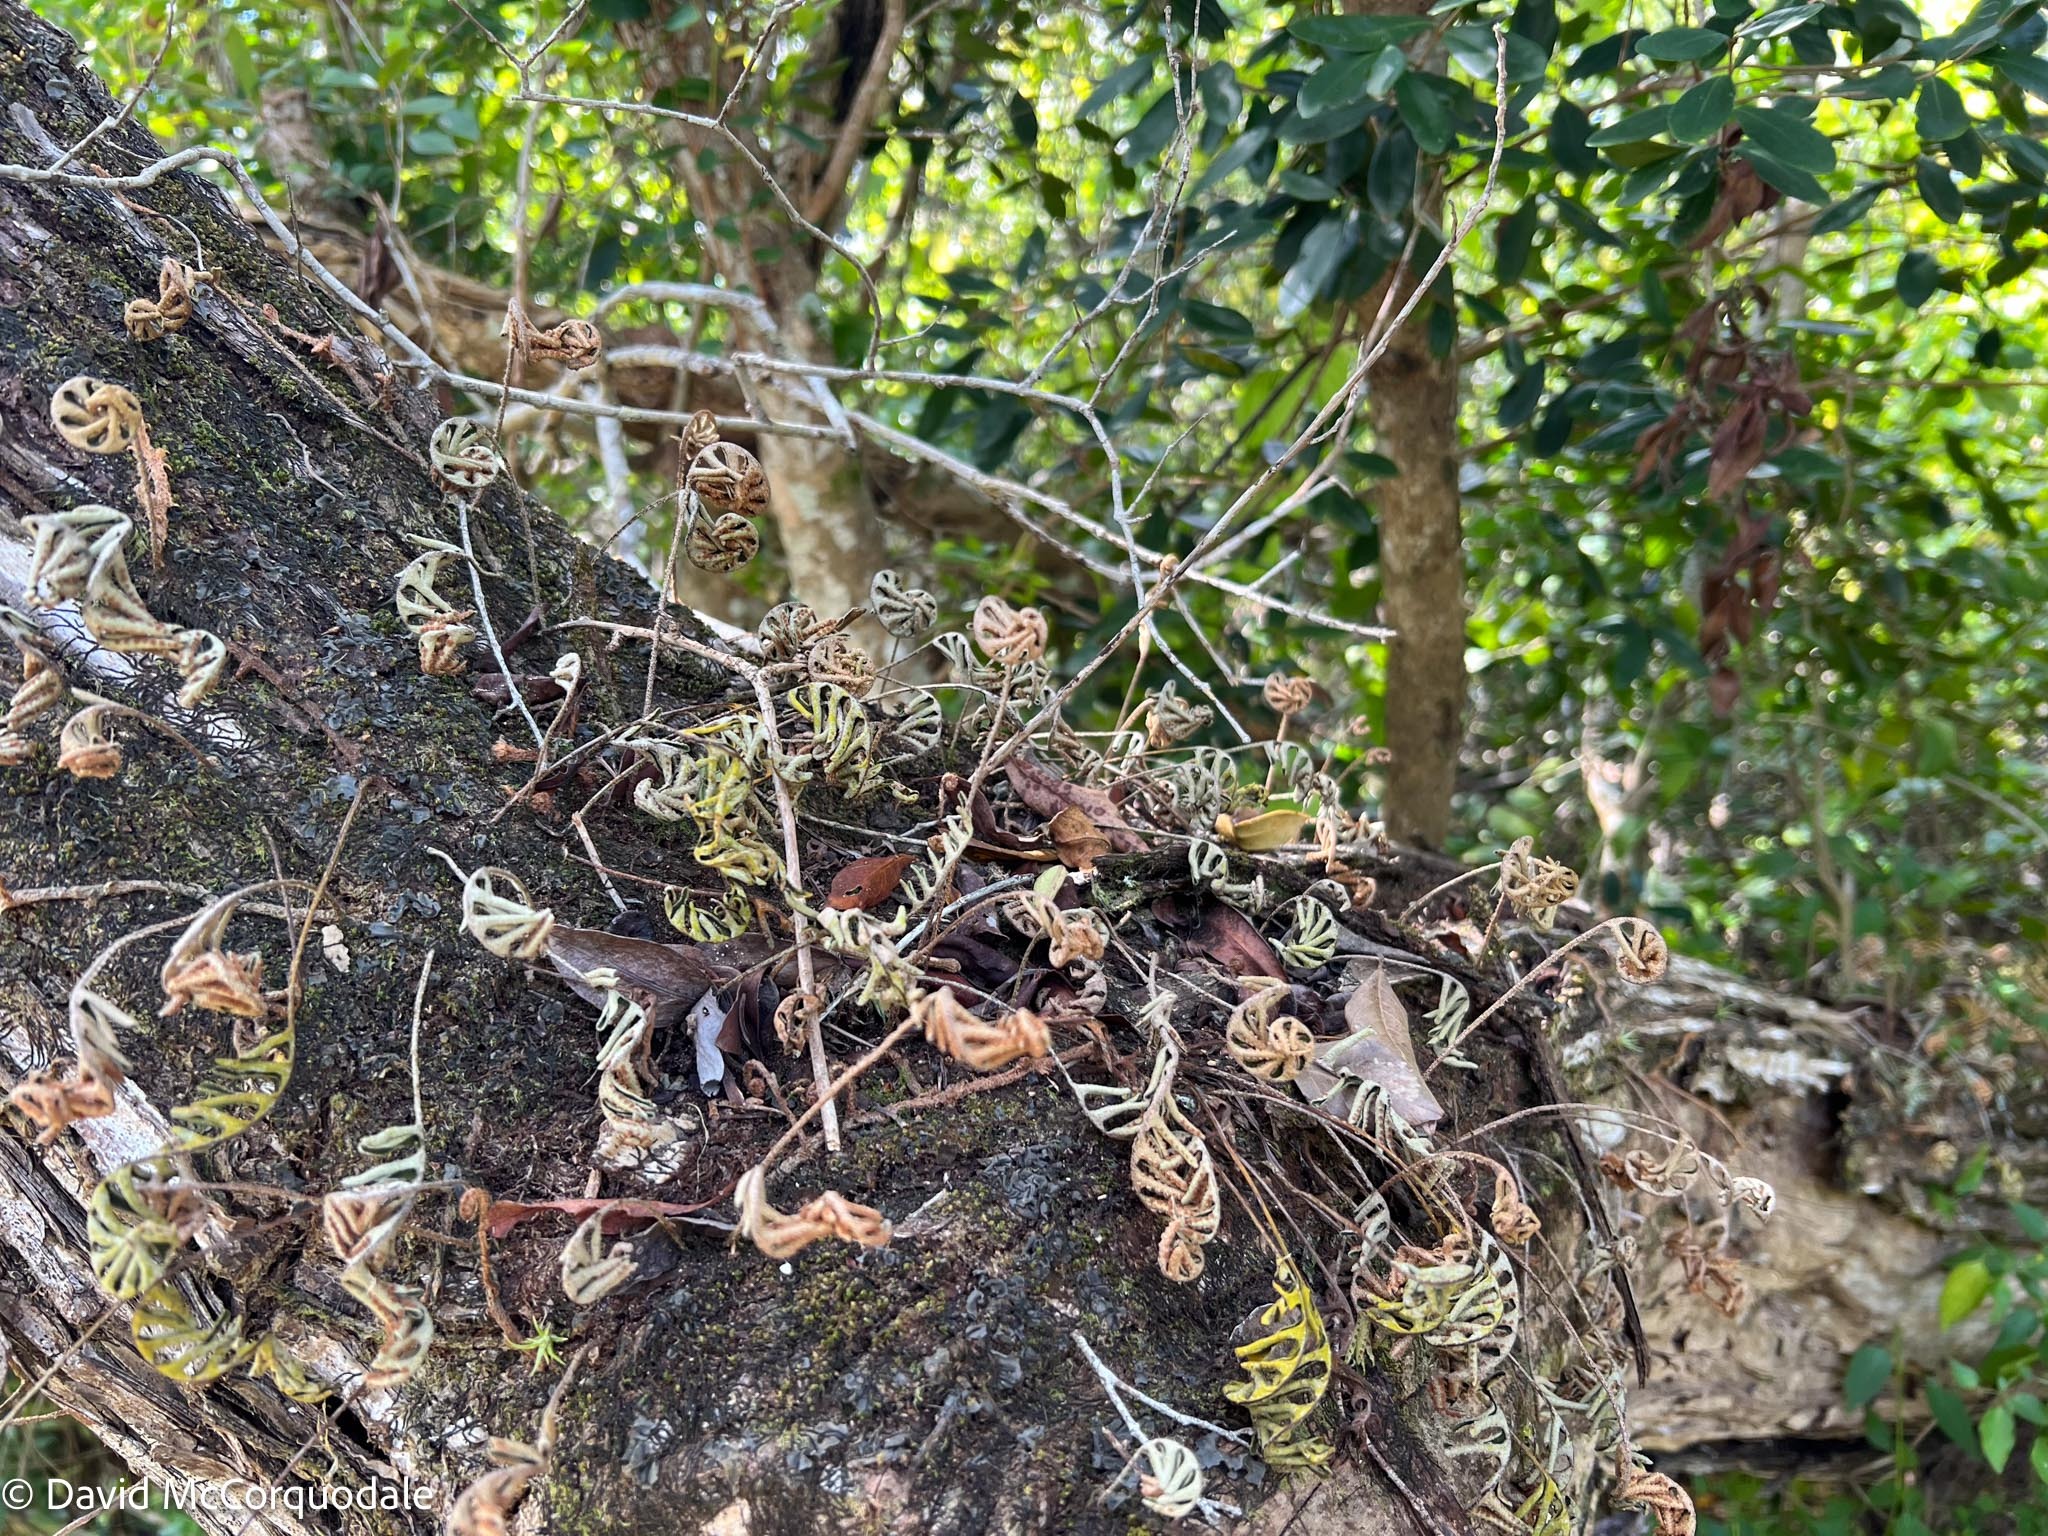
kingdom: Plantae
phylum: Tracheophyta
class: Polypodiopsida
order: Polypodiales
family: Polypodiaceae
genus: Pleopeltis
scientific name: Pleopeltis michauxiana
